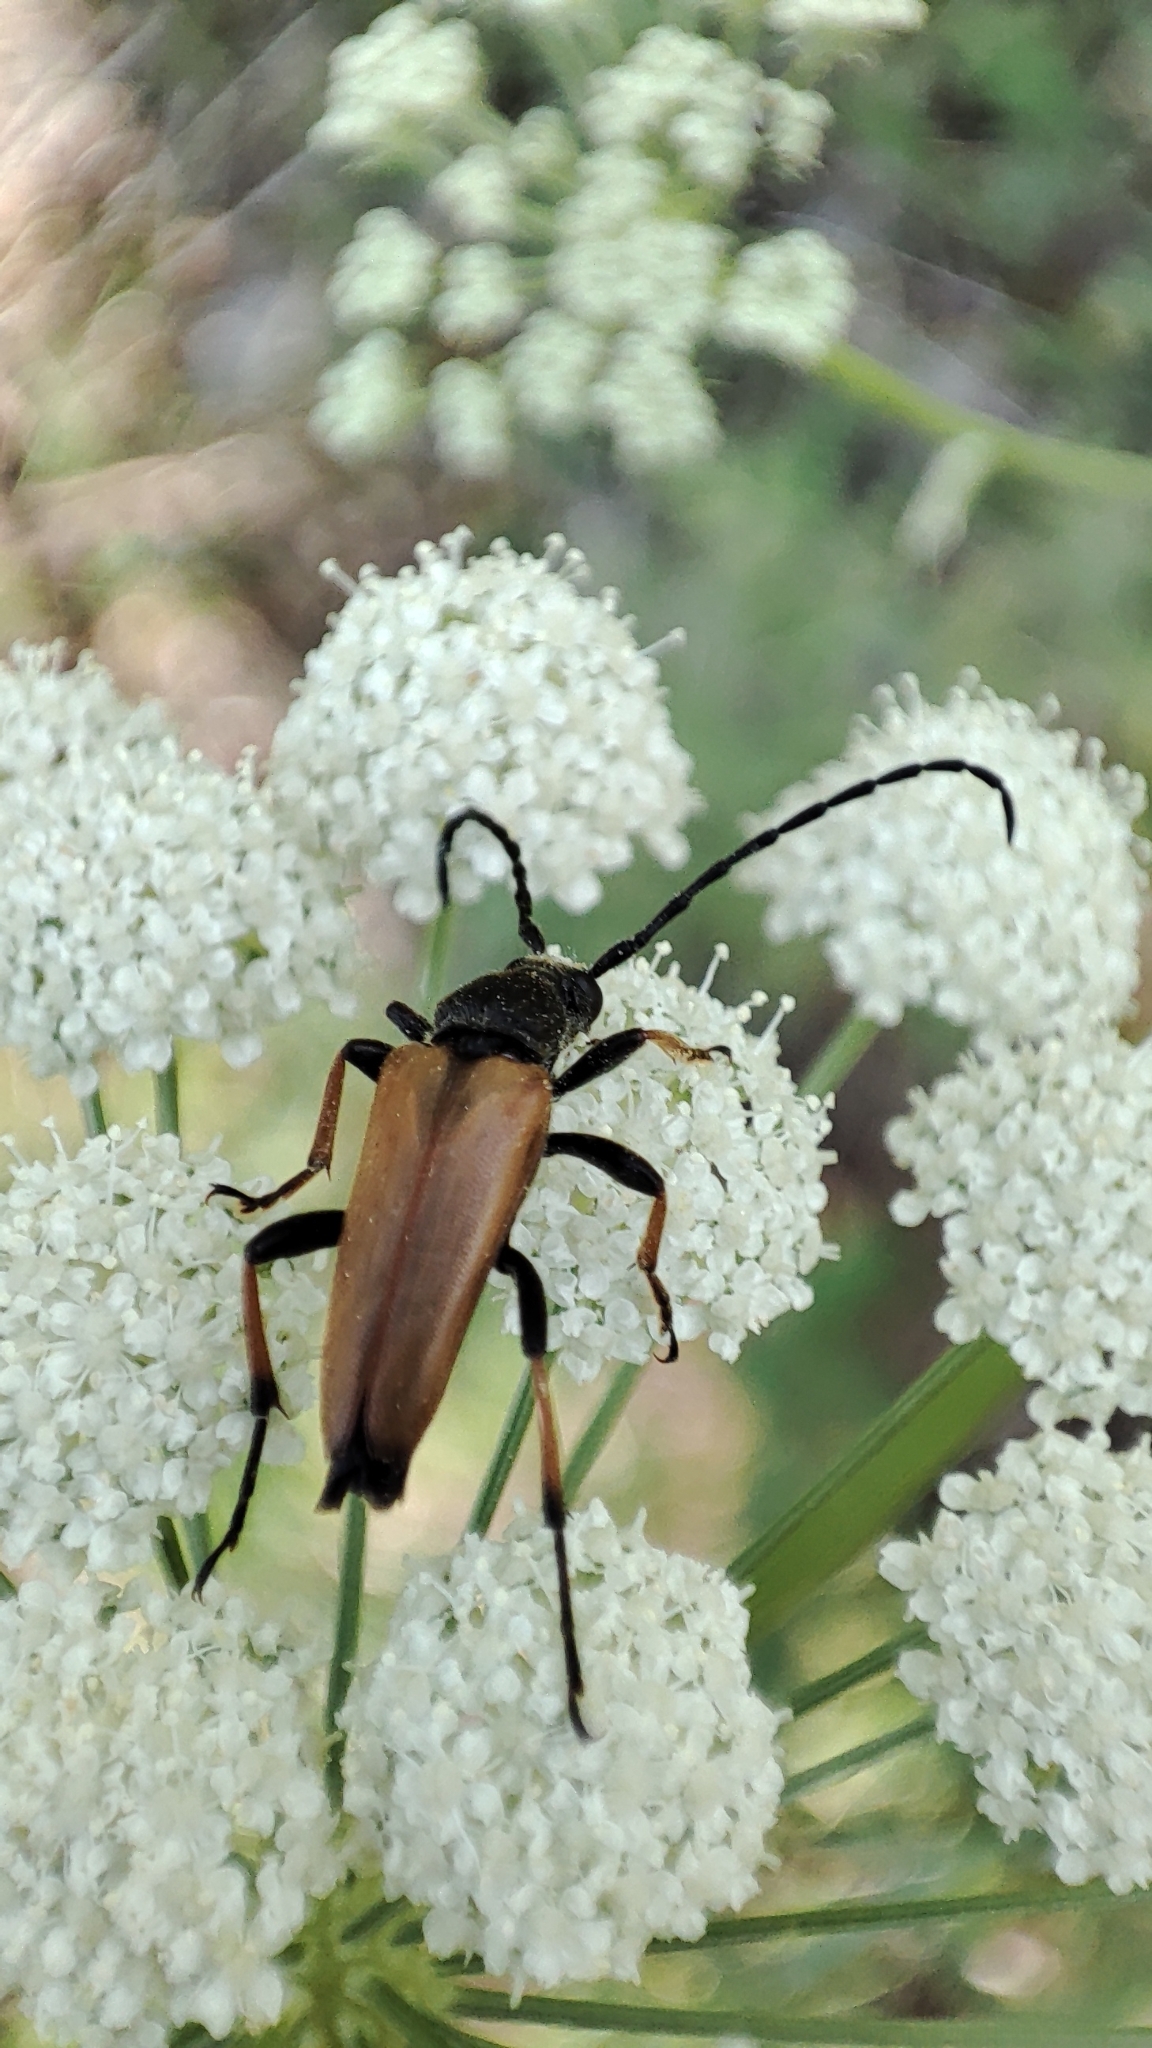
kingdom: Animalia
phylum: Arthropoda
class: Insecta
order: Coleoptera
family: Cerambycidae
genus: Stictoleptura
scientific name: Stictoleptura rubra
